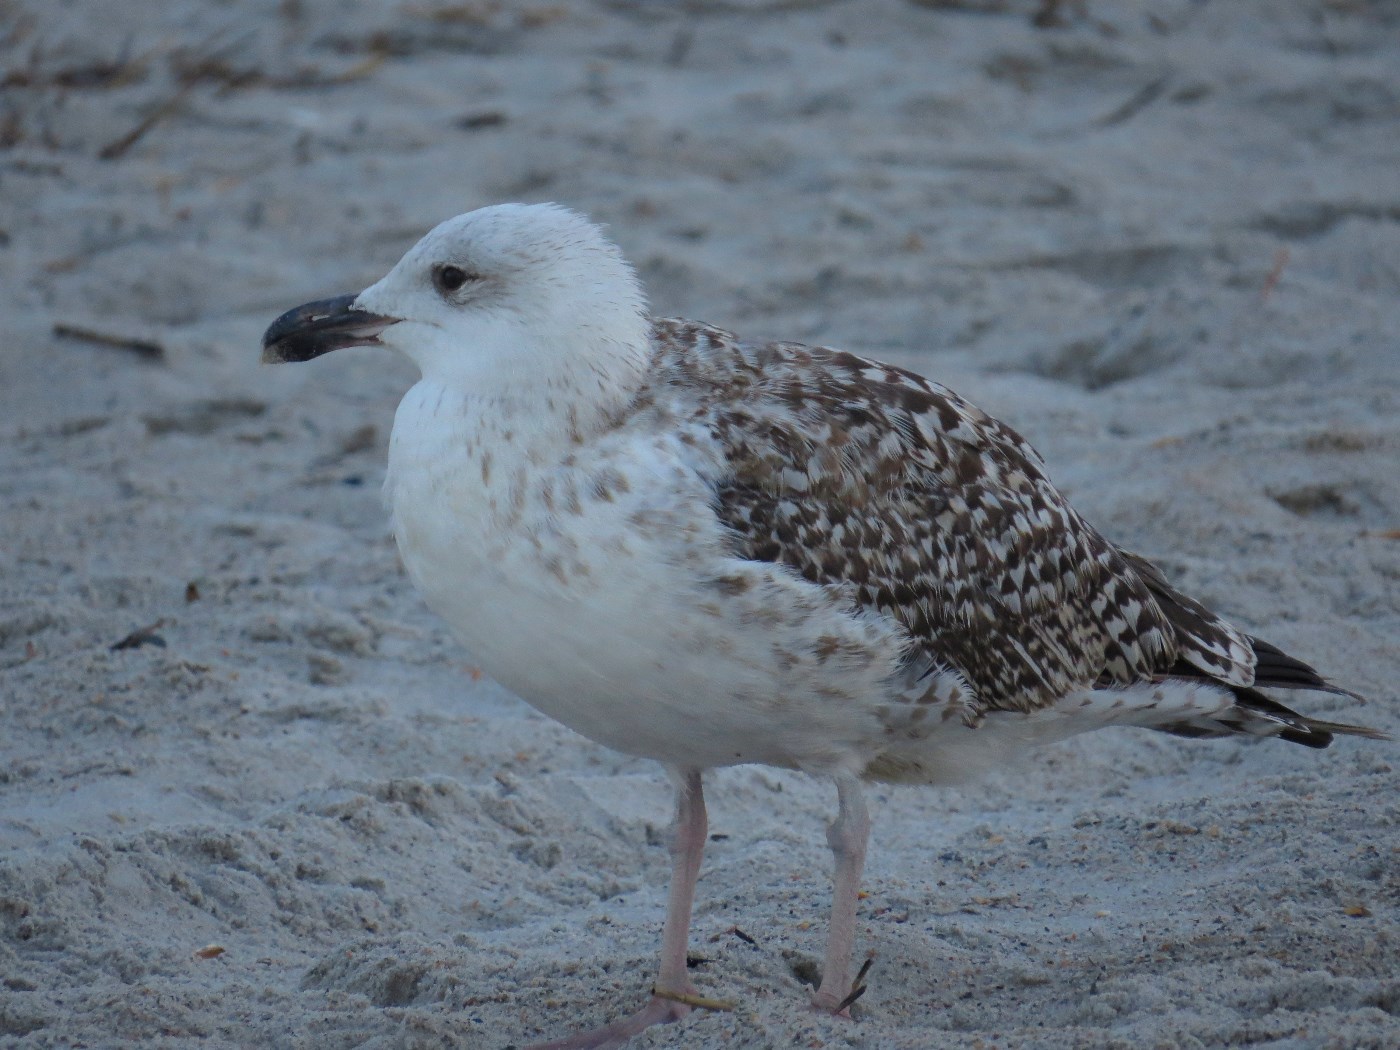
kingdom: Animalia
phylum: Chordata
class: Aves
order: Charadriiformes
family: Laridae
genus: Larus
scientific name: Larus marinus
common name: Great black-backed gull
